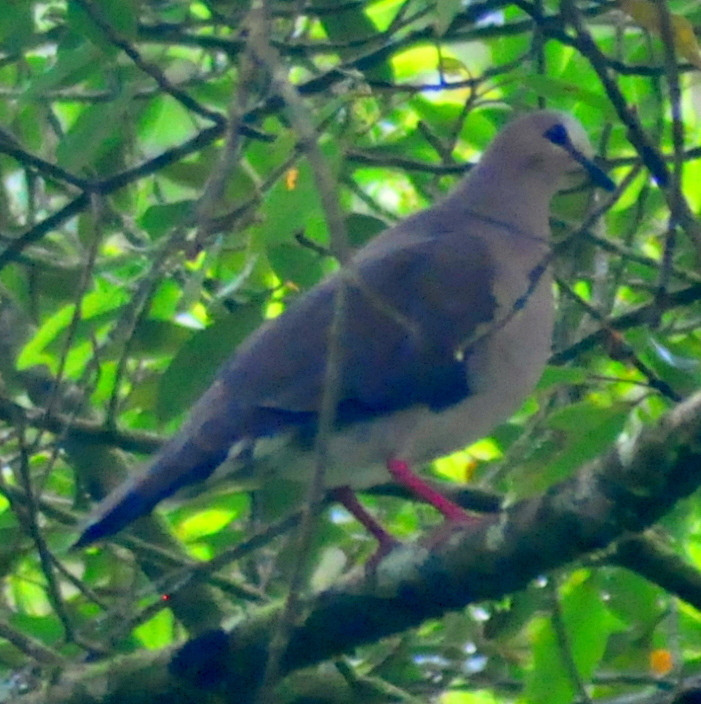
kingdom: Animalia
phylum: Chordata
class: Aves
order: Columbiformes
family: Columbidae
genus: Leptotila
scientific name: Leptotila rufaxilla
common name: Grey-fronted dove
